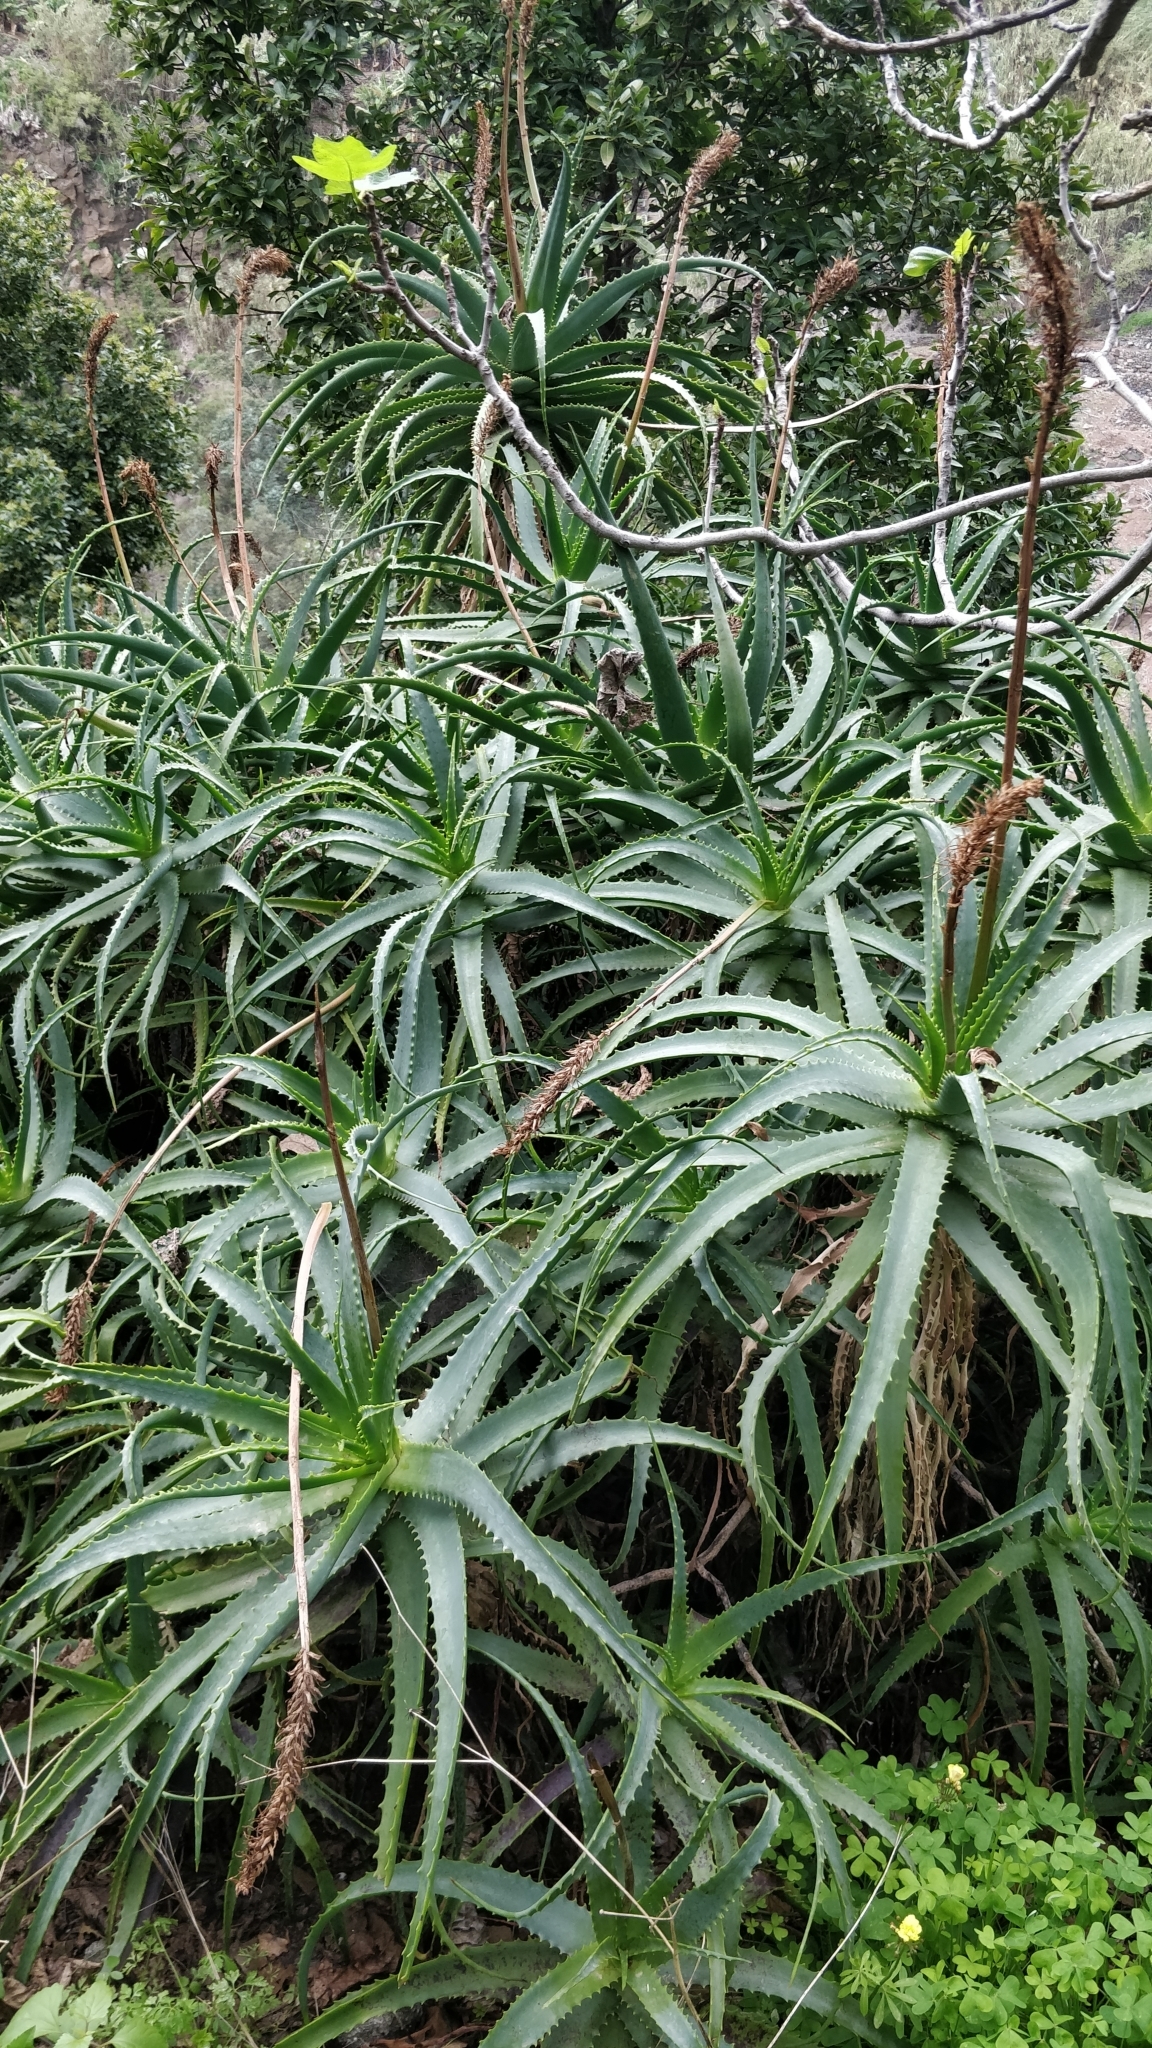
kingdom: Plantae
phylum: Tracheophyta
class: Liliopsida
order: Asparagales
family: Asphodelaceae
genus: Aloe
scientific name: Aloe arborescens
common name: Candelabra aloe
